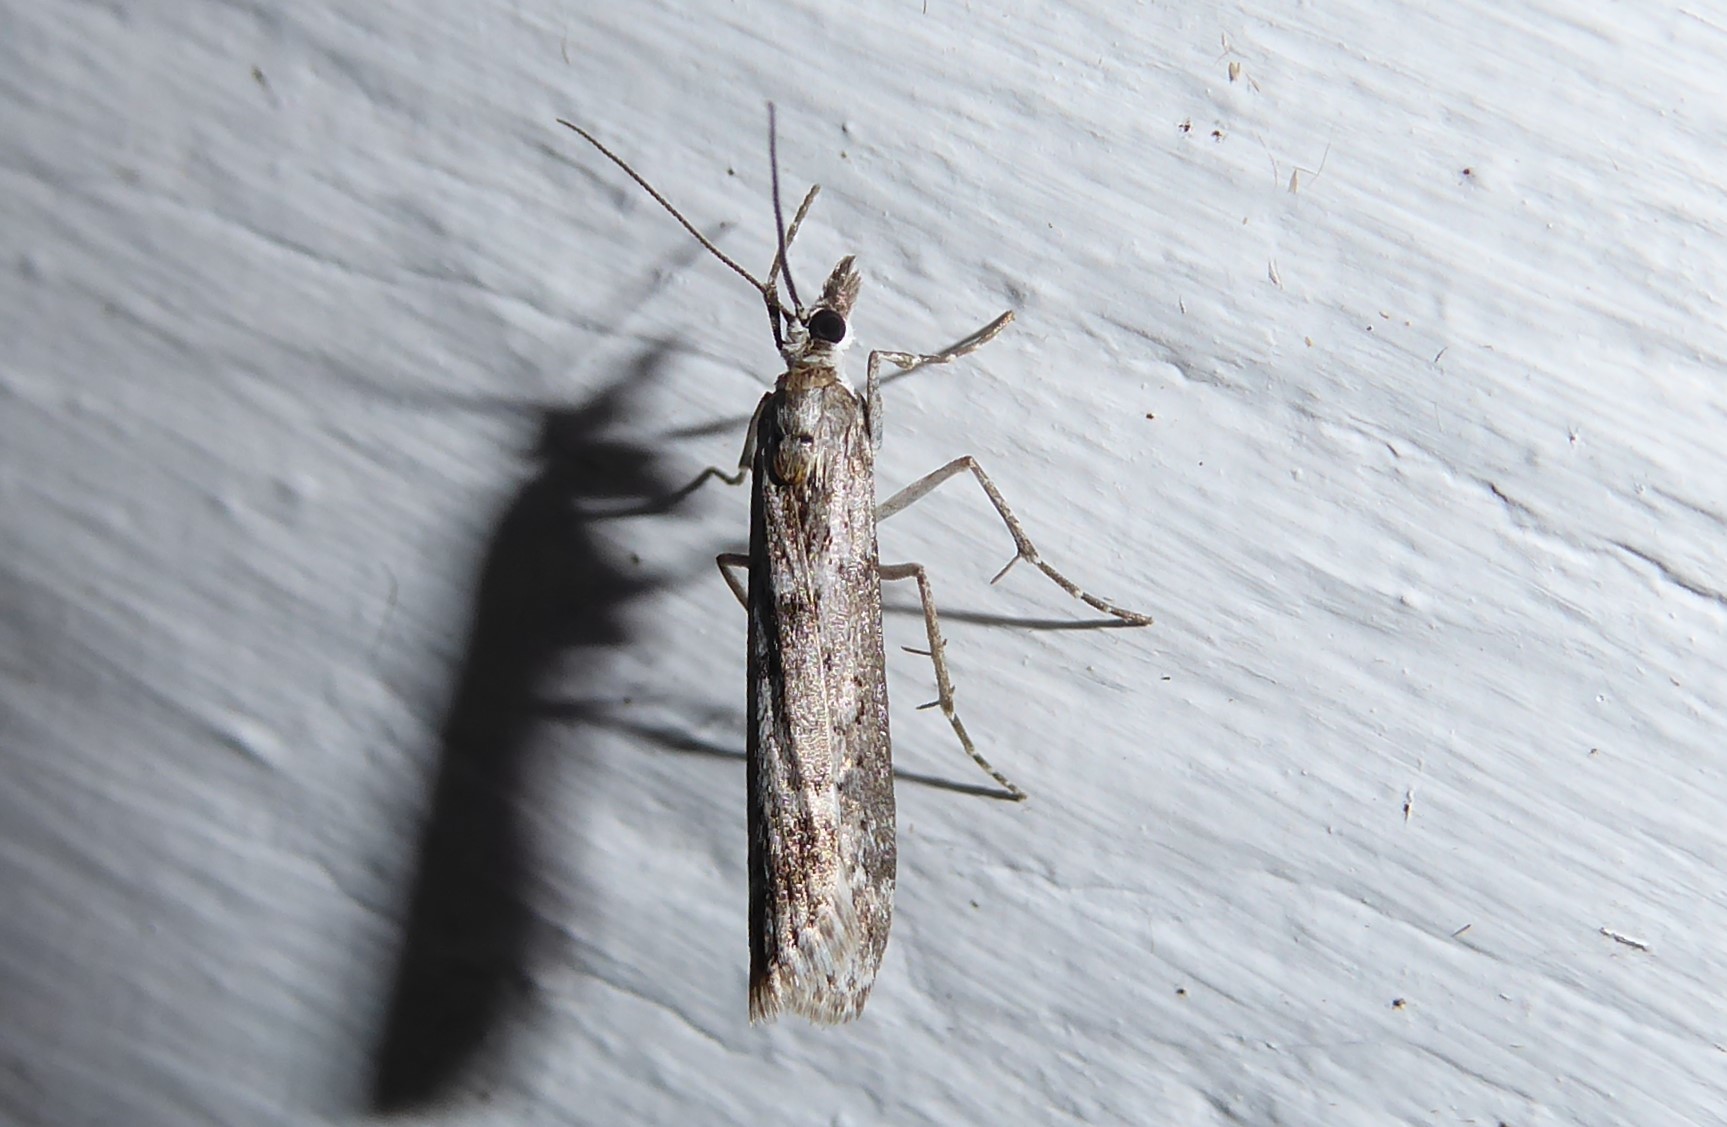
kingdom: Animalia
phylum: Arthropoda
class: Insecta
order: Lepidoptera
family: Crambidae
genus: Eudonia
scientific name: Eudonia leptalea
